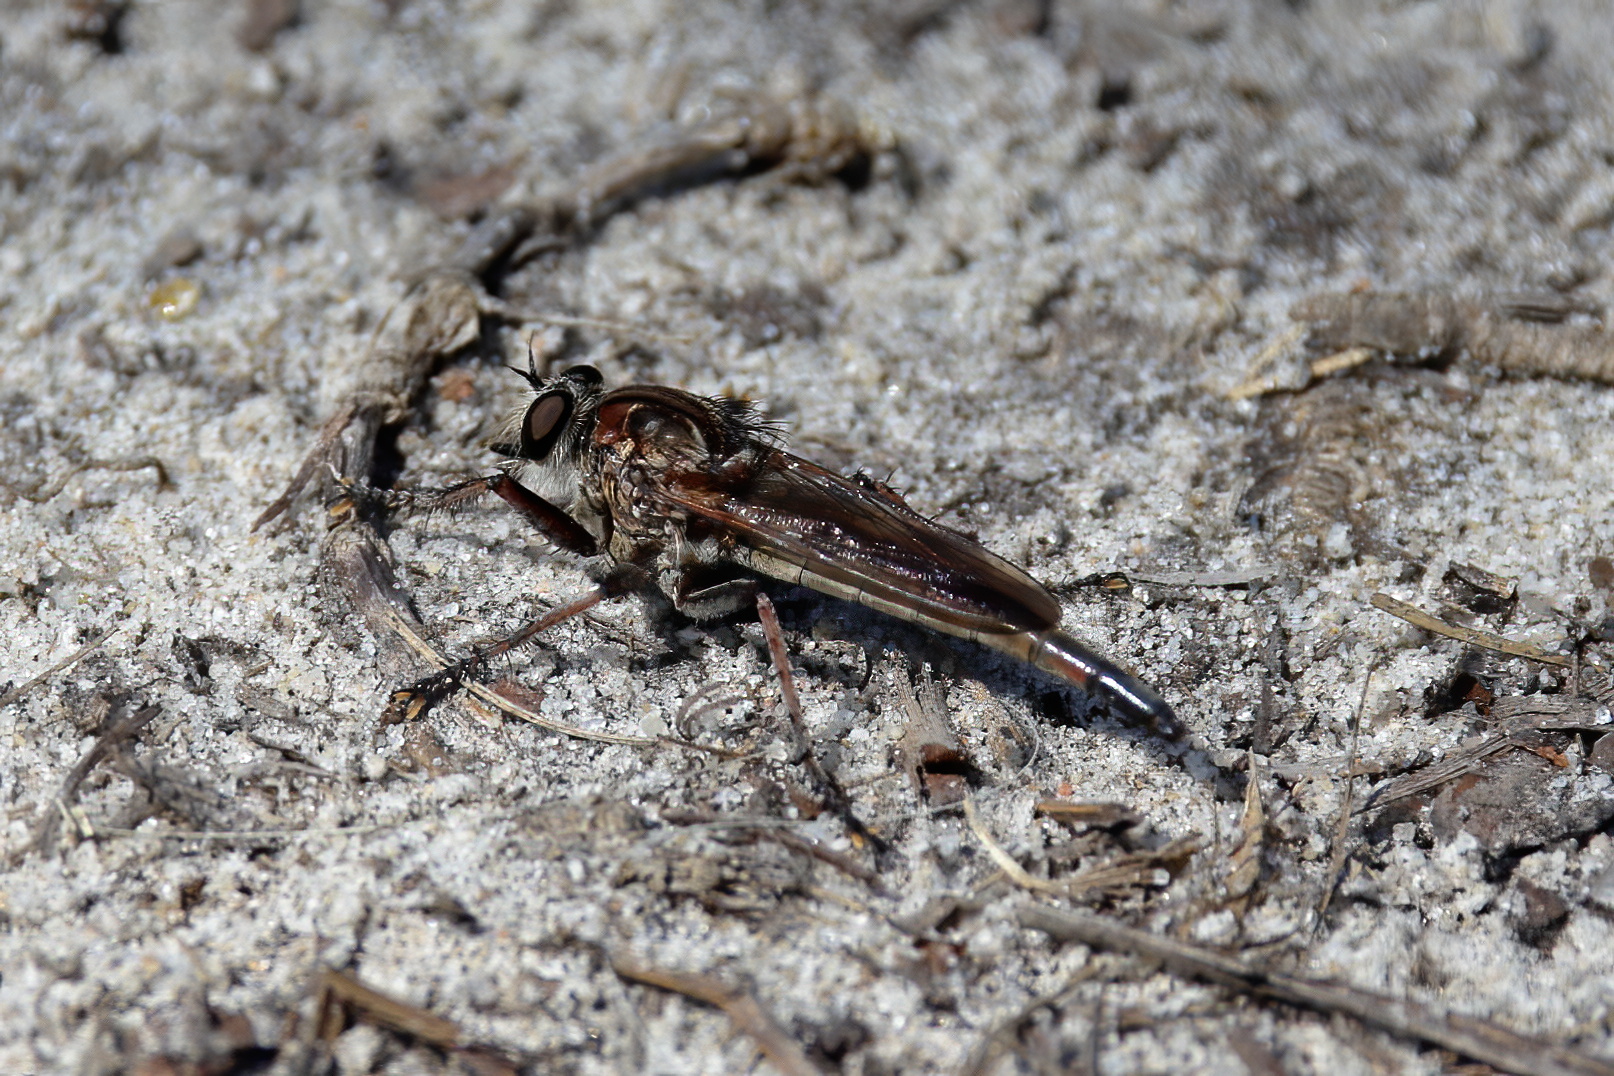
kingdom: Animalia
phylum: Arthropoda
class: Insecta
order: Diptera
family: Asilidae
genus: Proctacanthus
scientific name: Proctacanthus brevipennis
